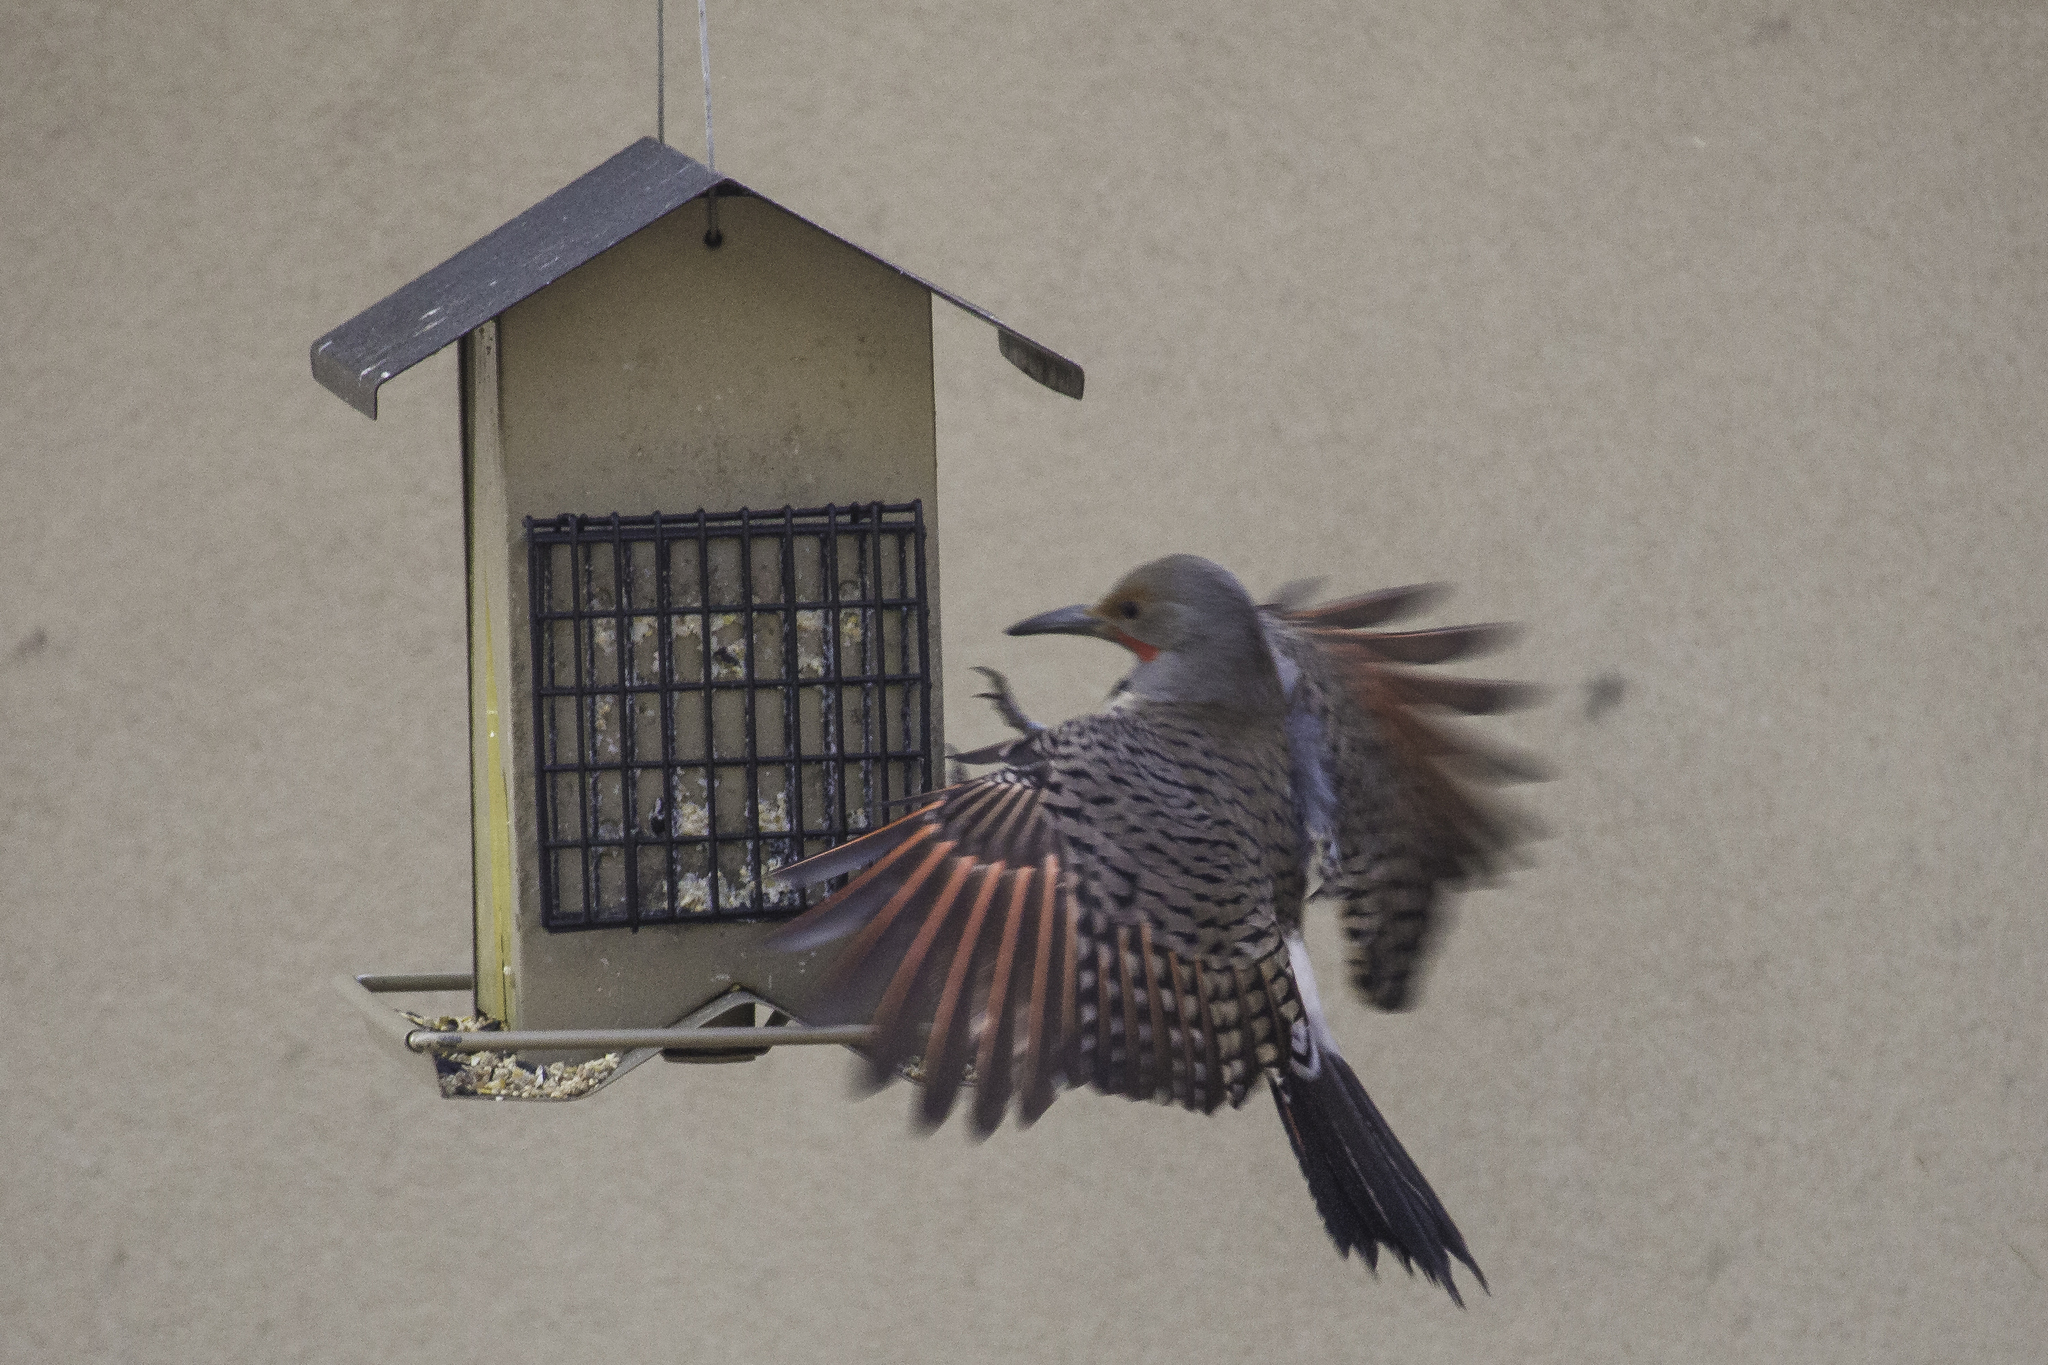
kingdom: Animalia
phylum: Chordata
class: Aves
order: Piciformes
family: Picidae
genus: Colaptes
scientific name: Colaptes auratus
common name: Northern flicker
